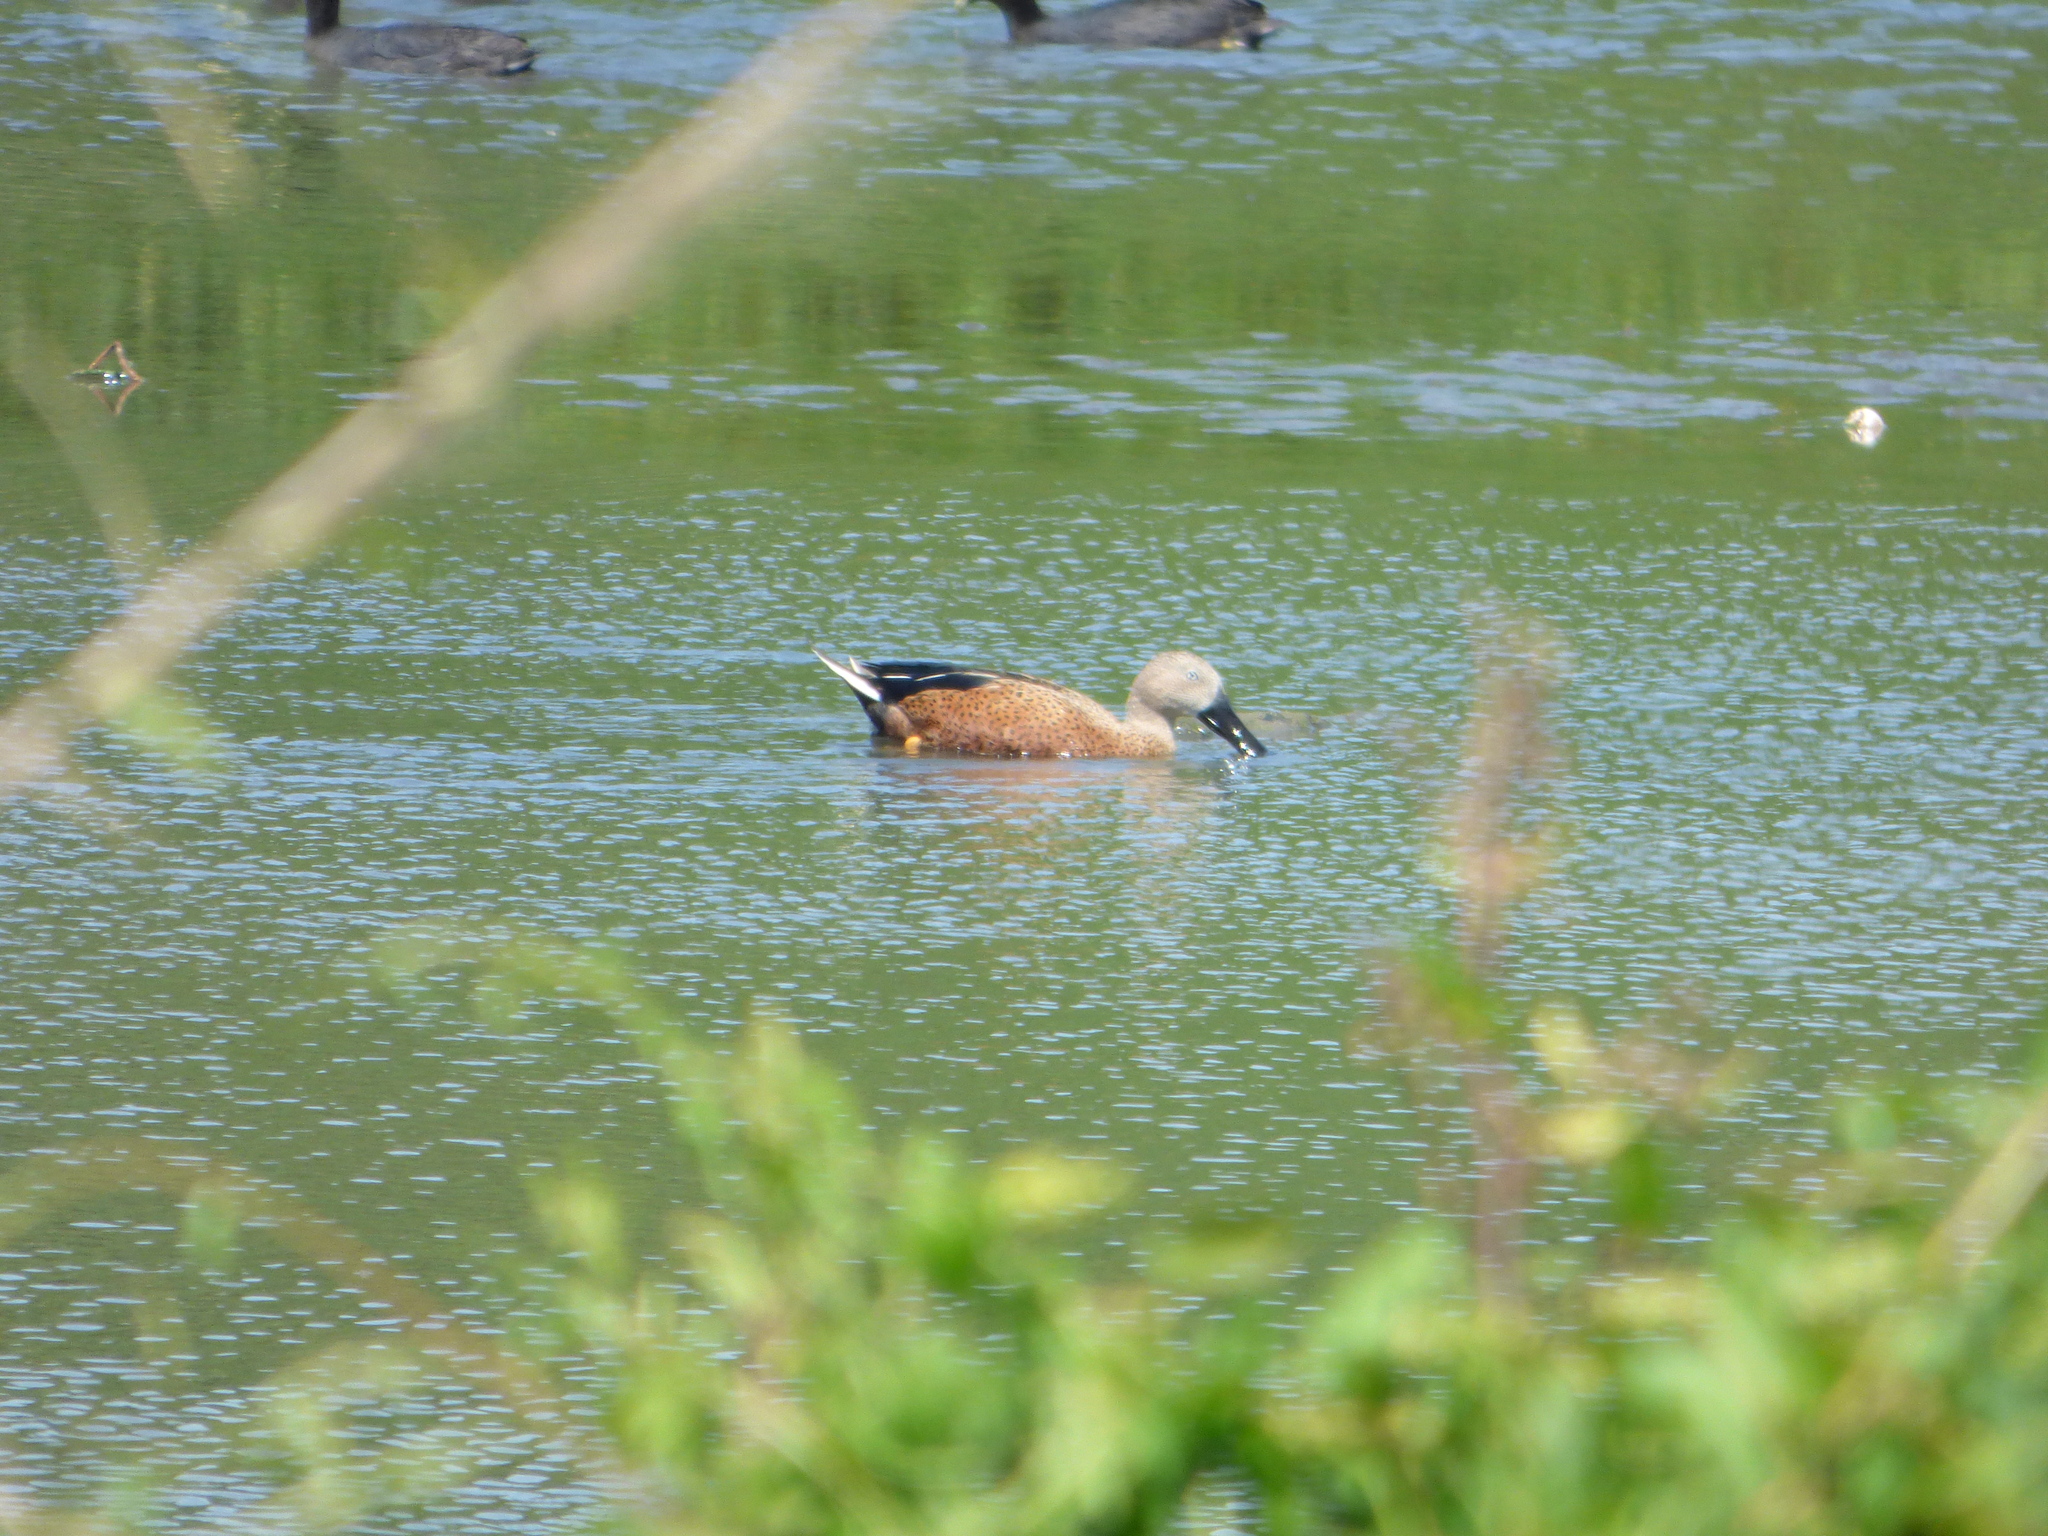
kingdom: Animalia
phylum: Chordata
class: Aves
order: Anseriformes
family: Anatidae
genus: Spatula
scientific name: Spatula platalea
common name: Red shoveler
